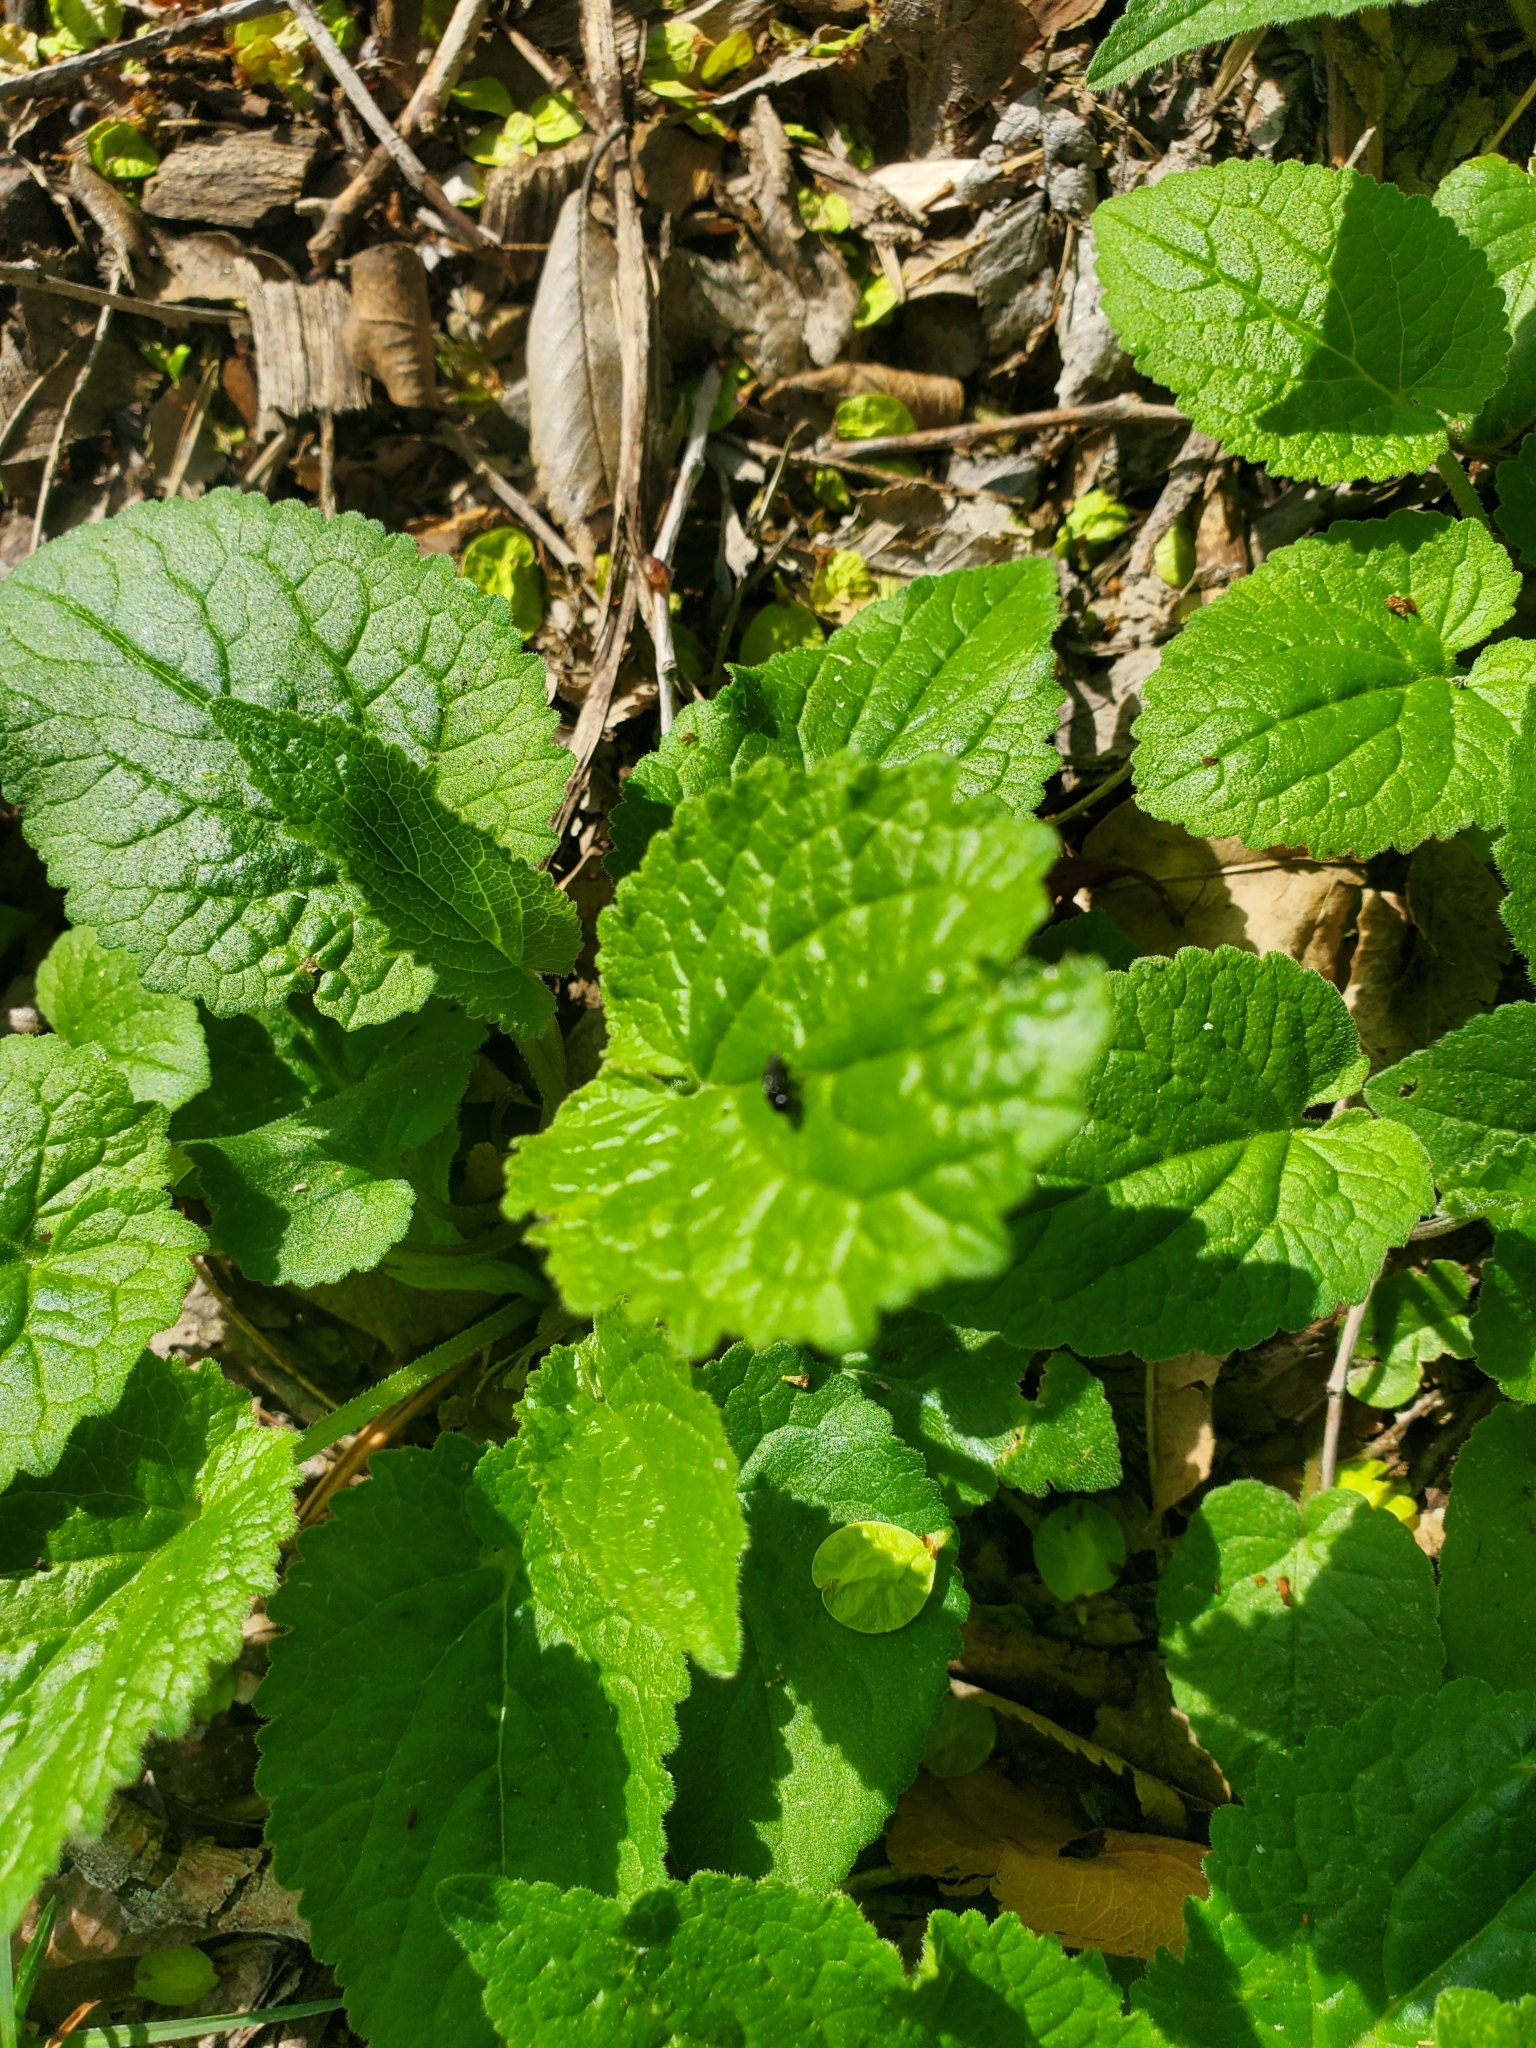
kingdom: Plantae
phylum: Tracheophyta
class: Magnoliopsida
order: Asterales
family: Campanulaceae
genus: Campanula
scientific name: Campanula rapunculoides
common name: Creeping bellflower
